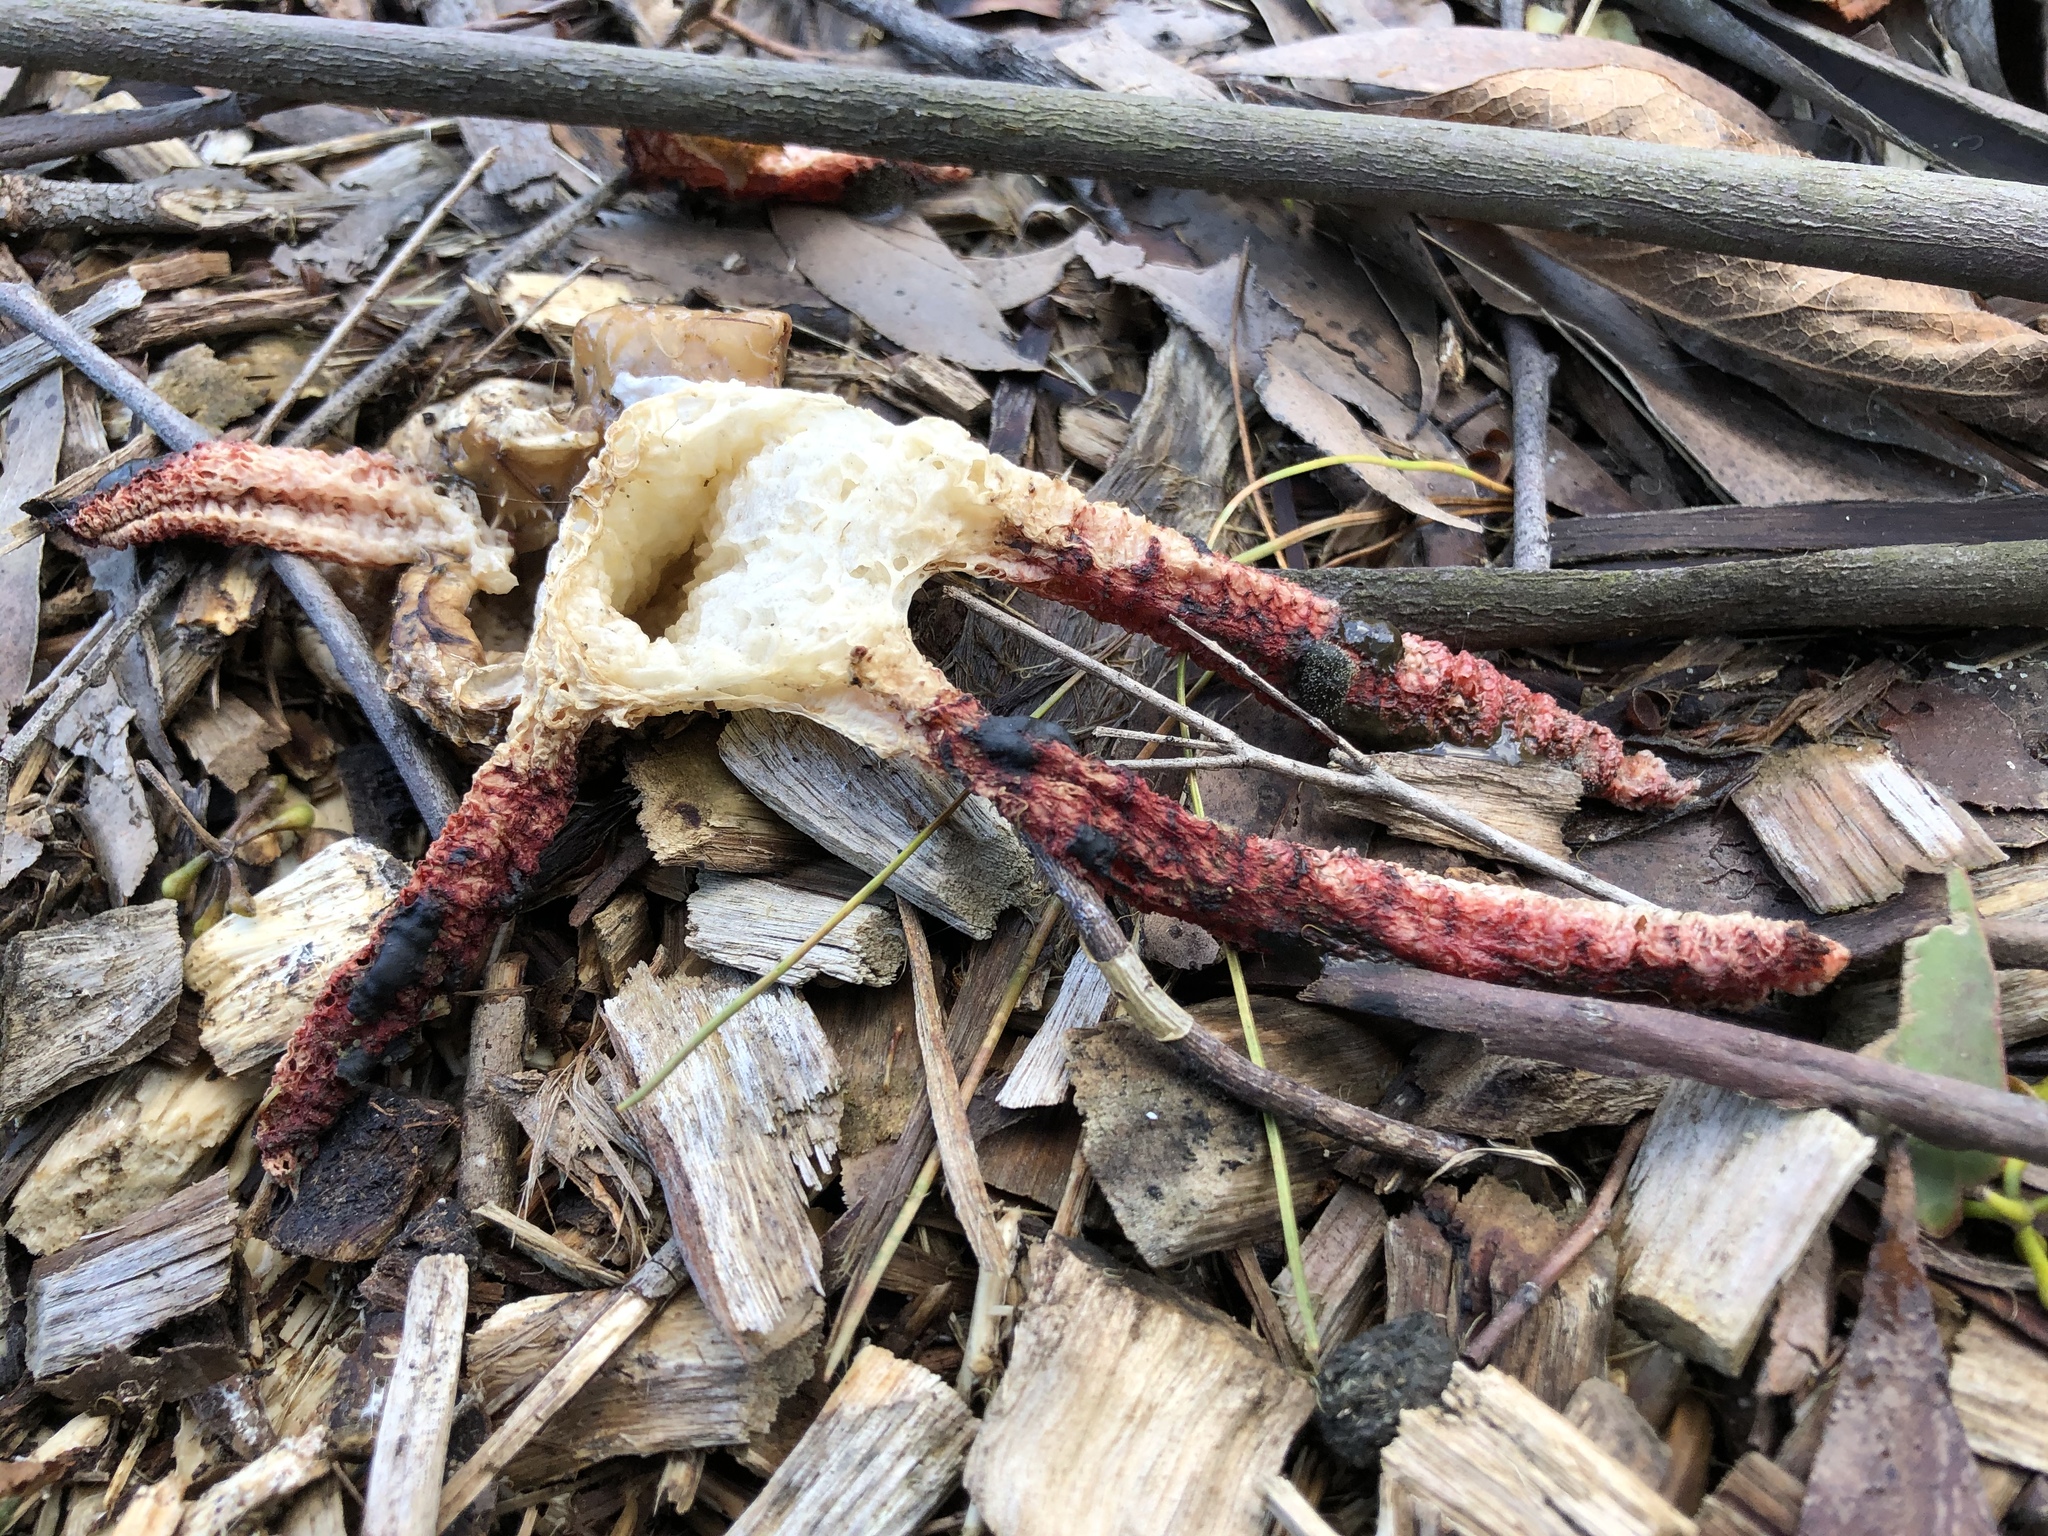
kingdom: Fungi
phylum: Basidiomycota
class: Agaricomycetes
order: Phallales
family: Phallaceae
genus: Clathrus
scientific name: Clathrus archeri
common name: Devil's fingers
